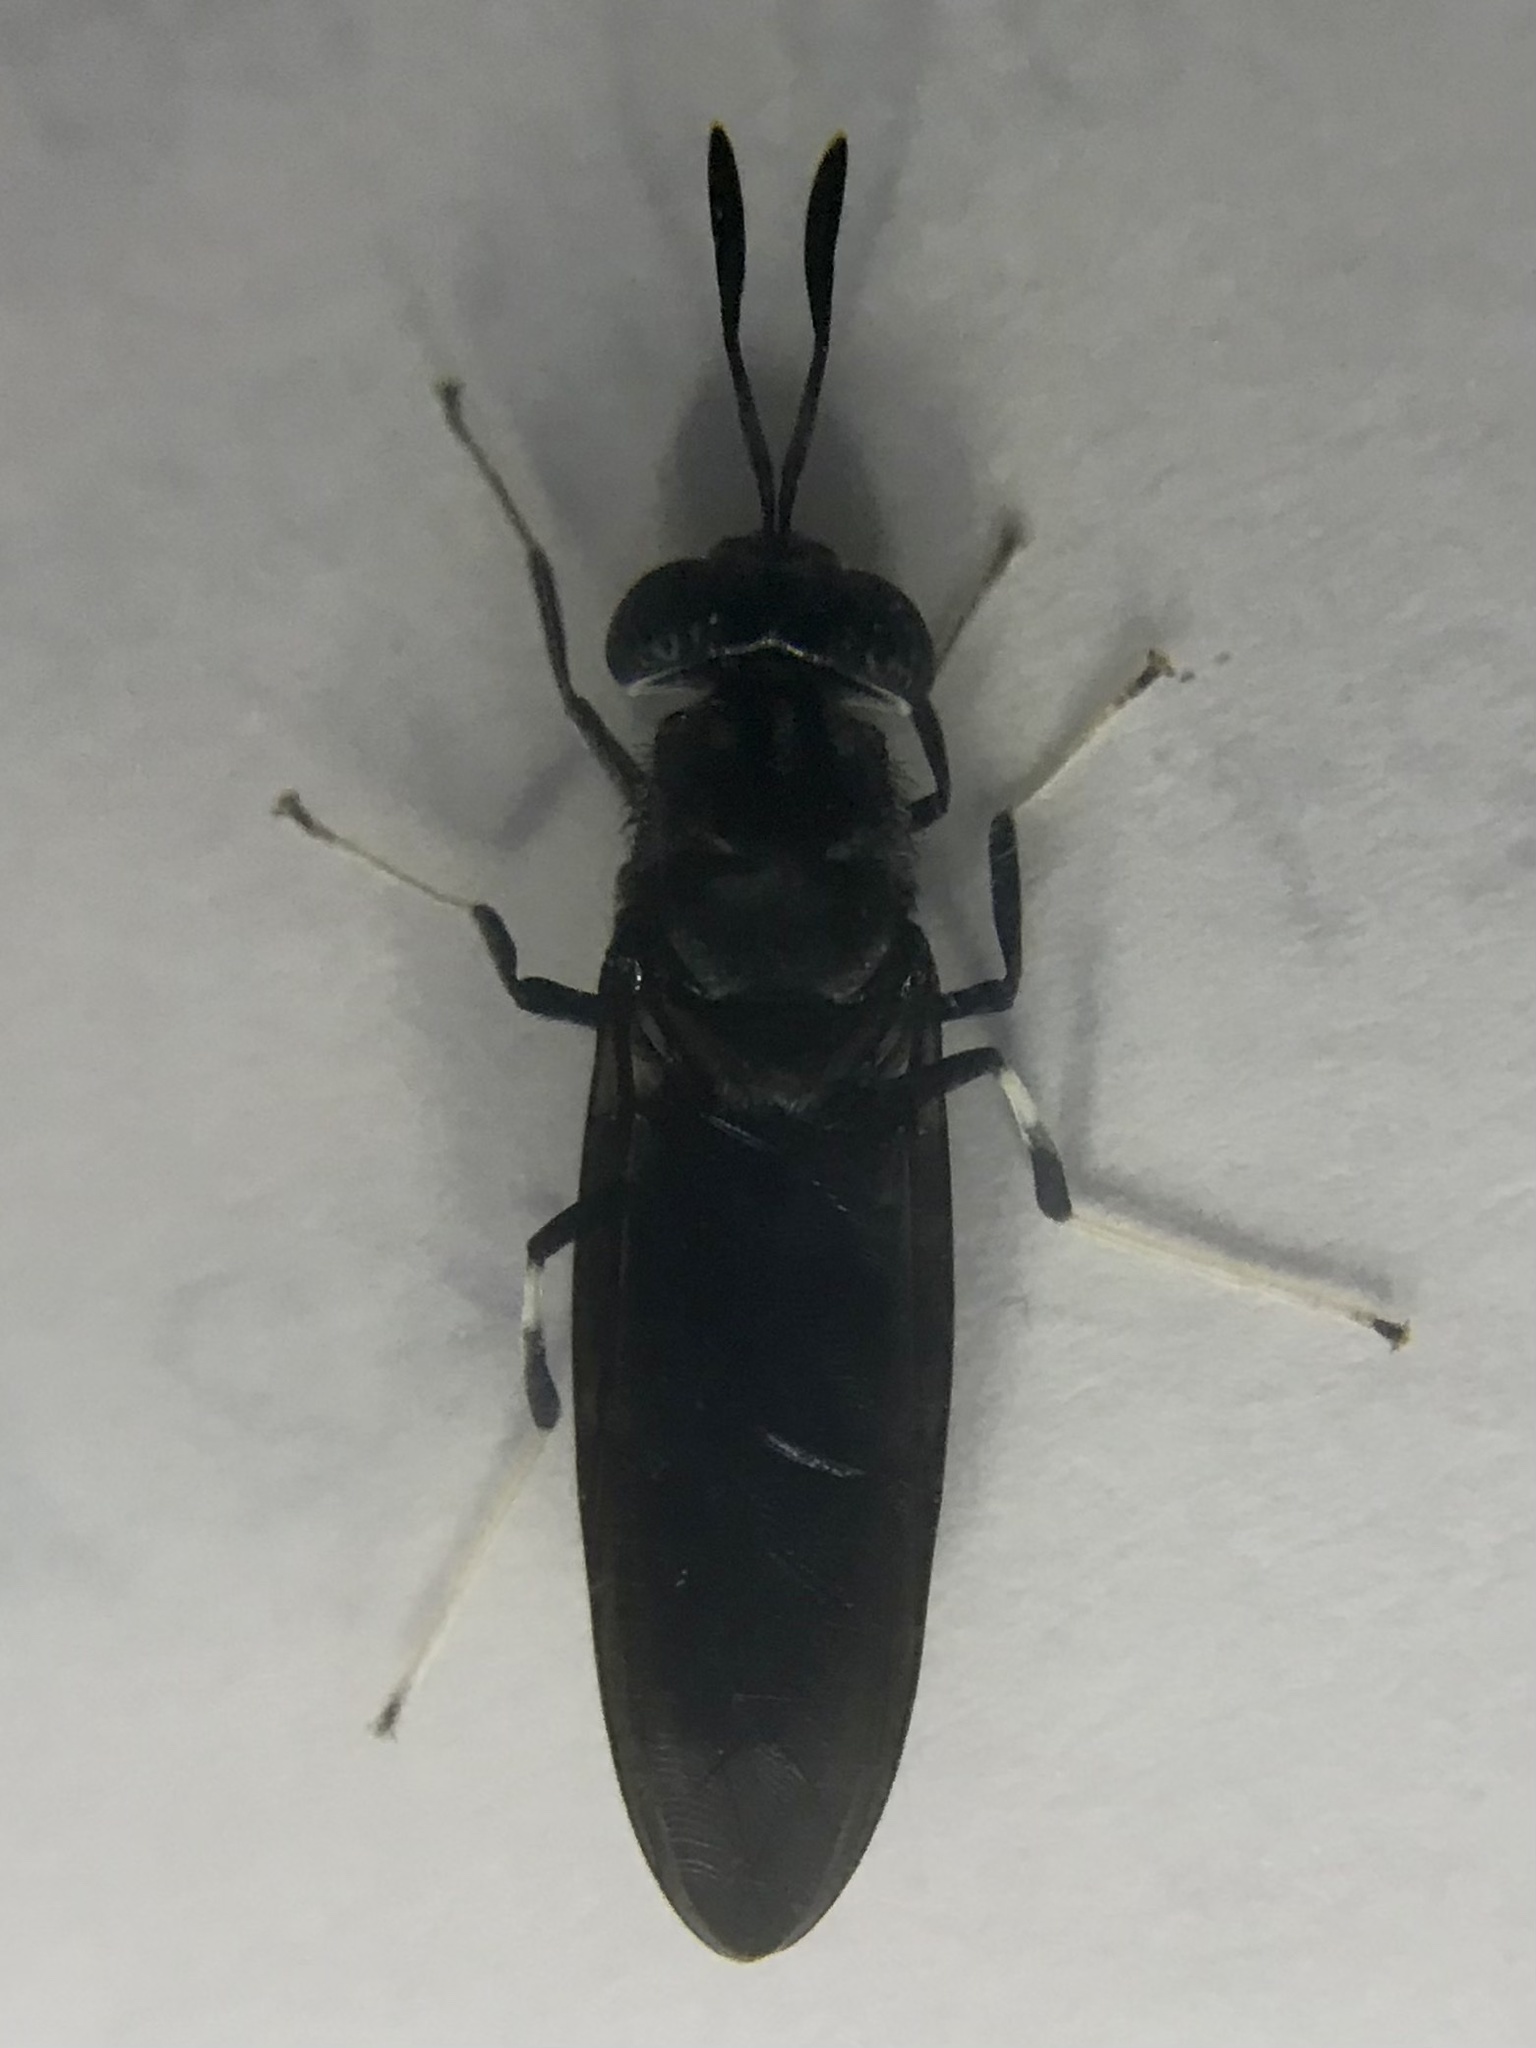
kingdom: Animalia
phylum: Arthropoda
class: Insecta
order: Diptera
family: Stratiomyidae
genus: Hermetia
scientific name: Hermetia illucens
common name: Black soldier fly
